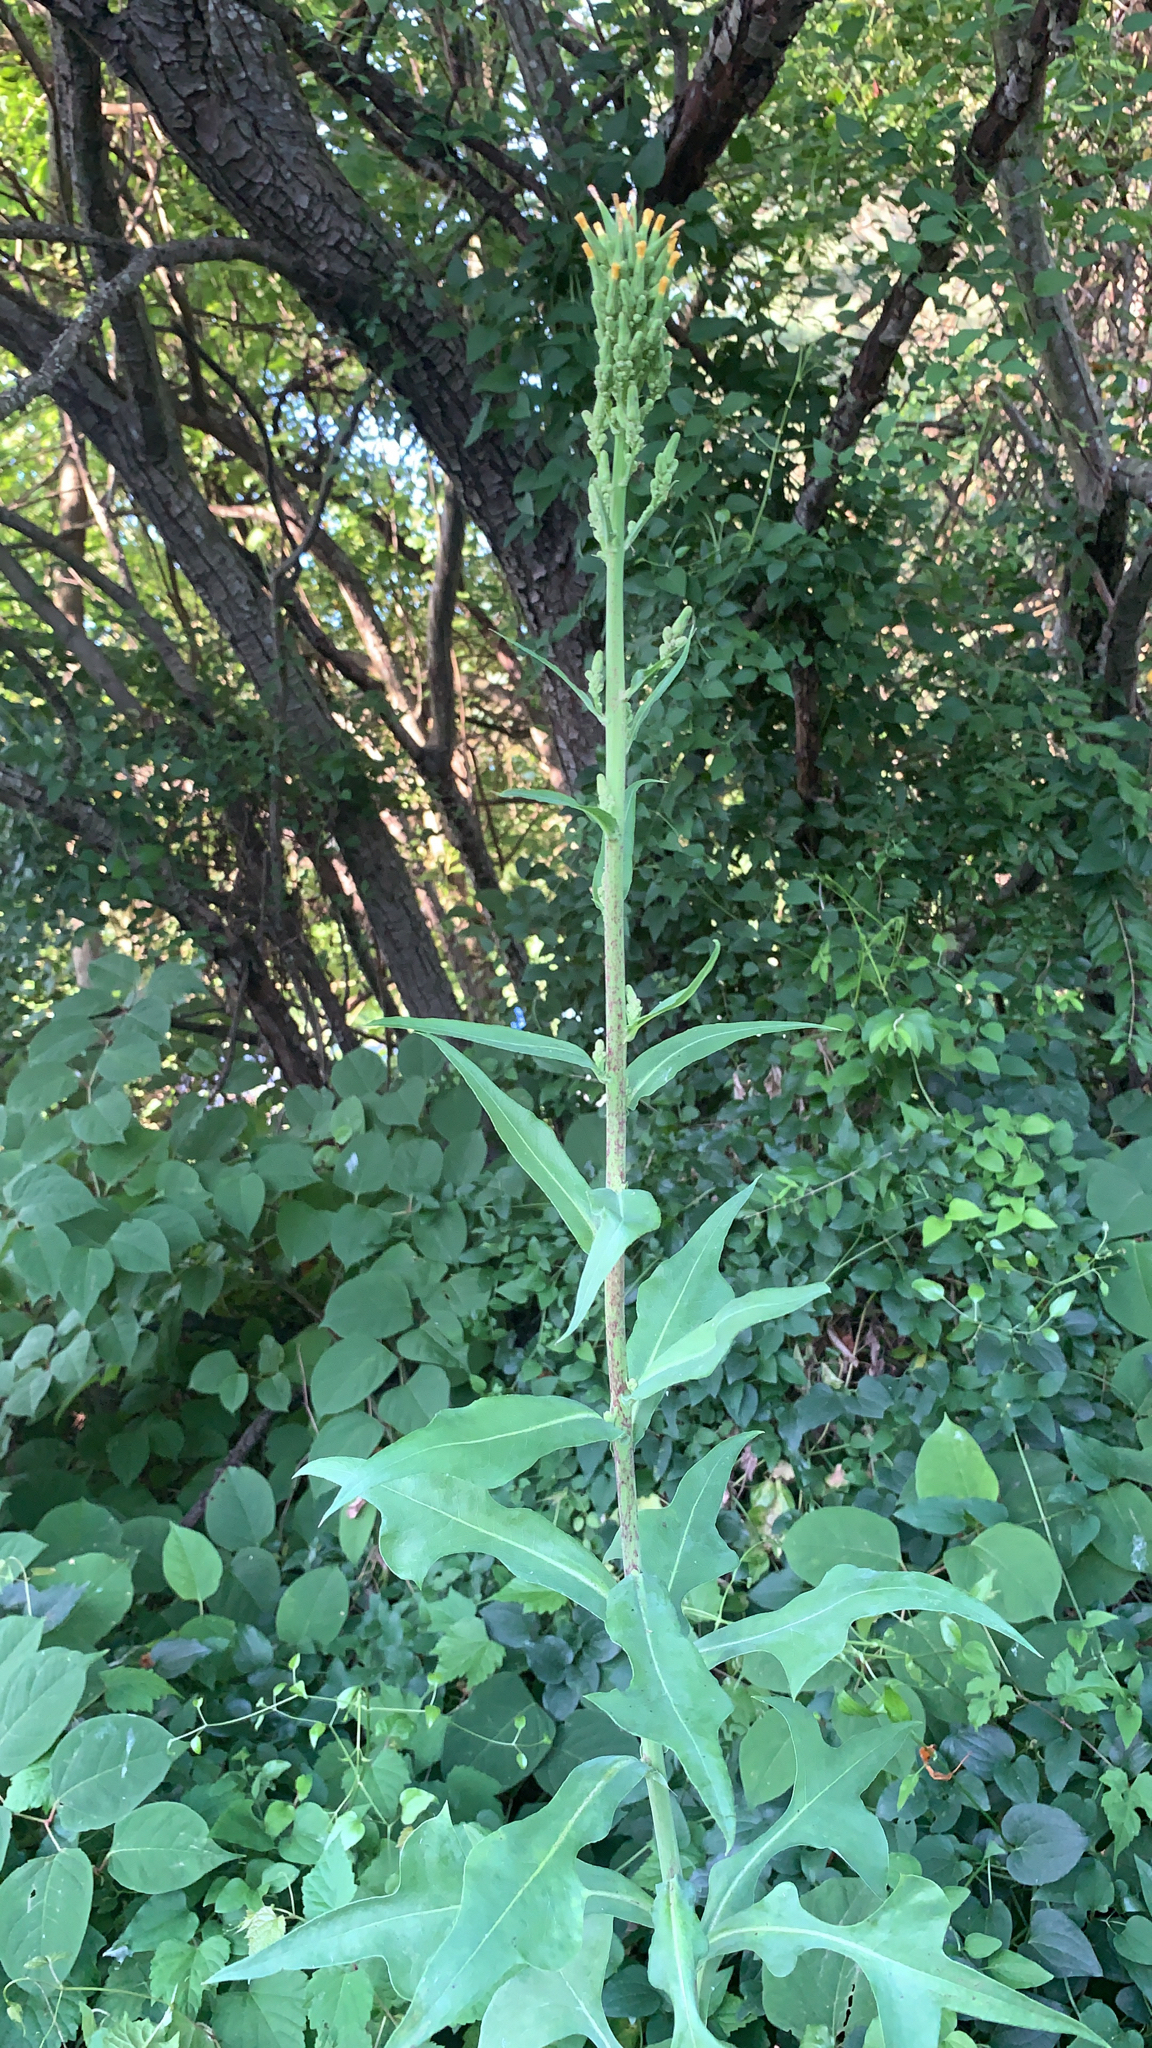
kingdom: Plantae
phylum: Tracheophyta
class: Magnoliopsida
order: Asterales
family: Asteraceae
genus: Lactuca
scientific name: Lactuca canadensis
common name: Canada lettuce
